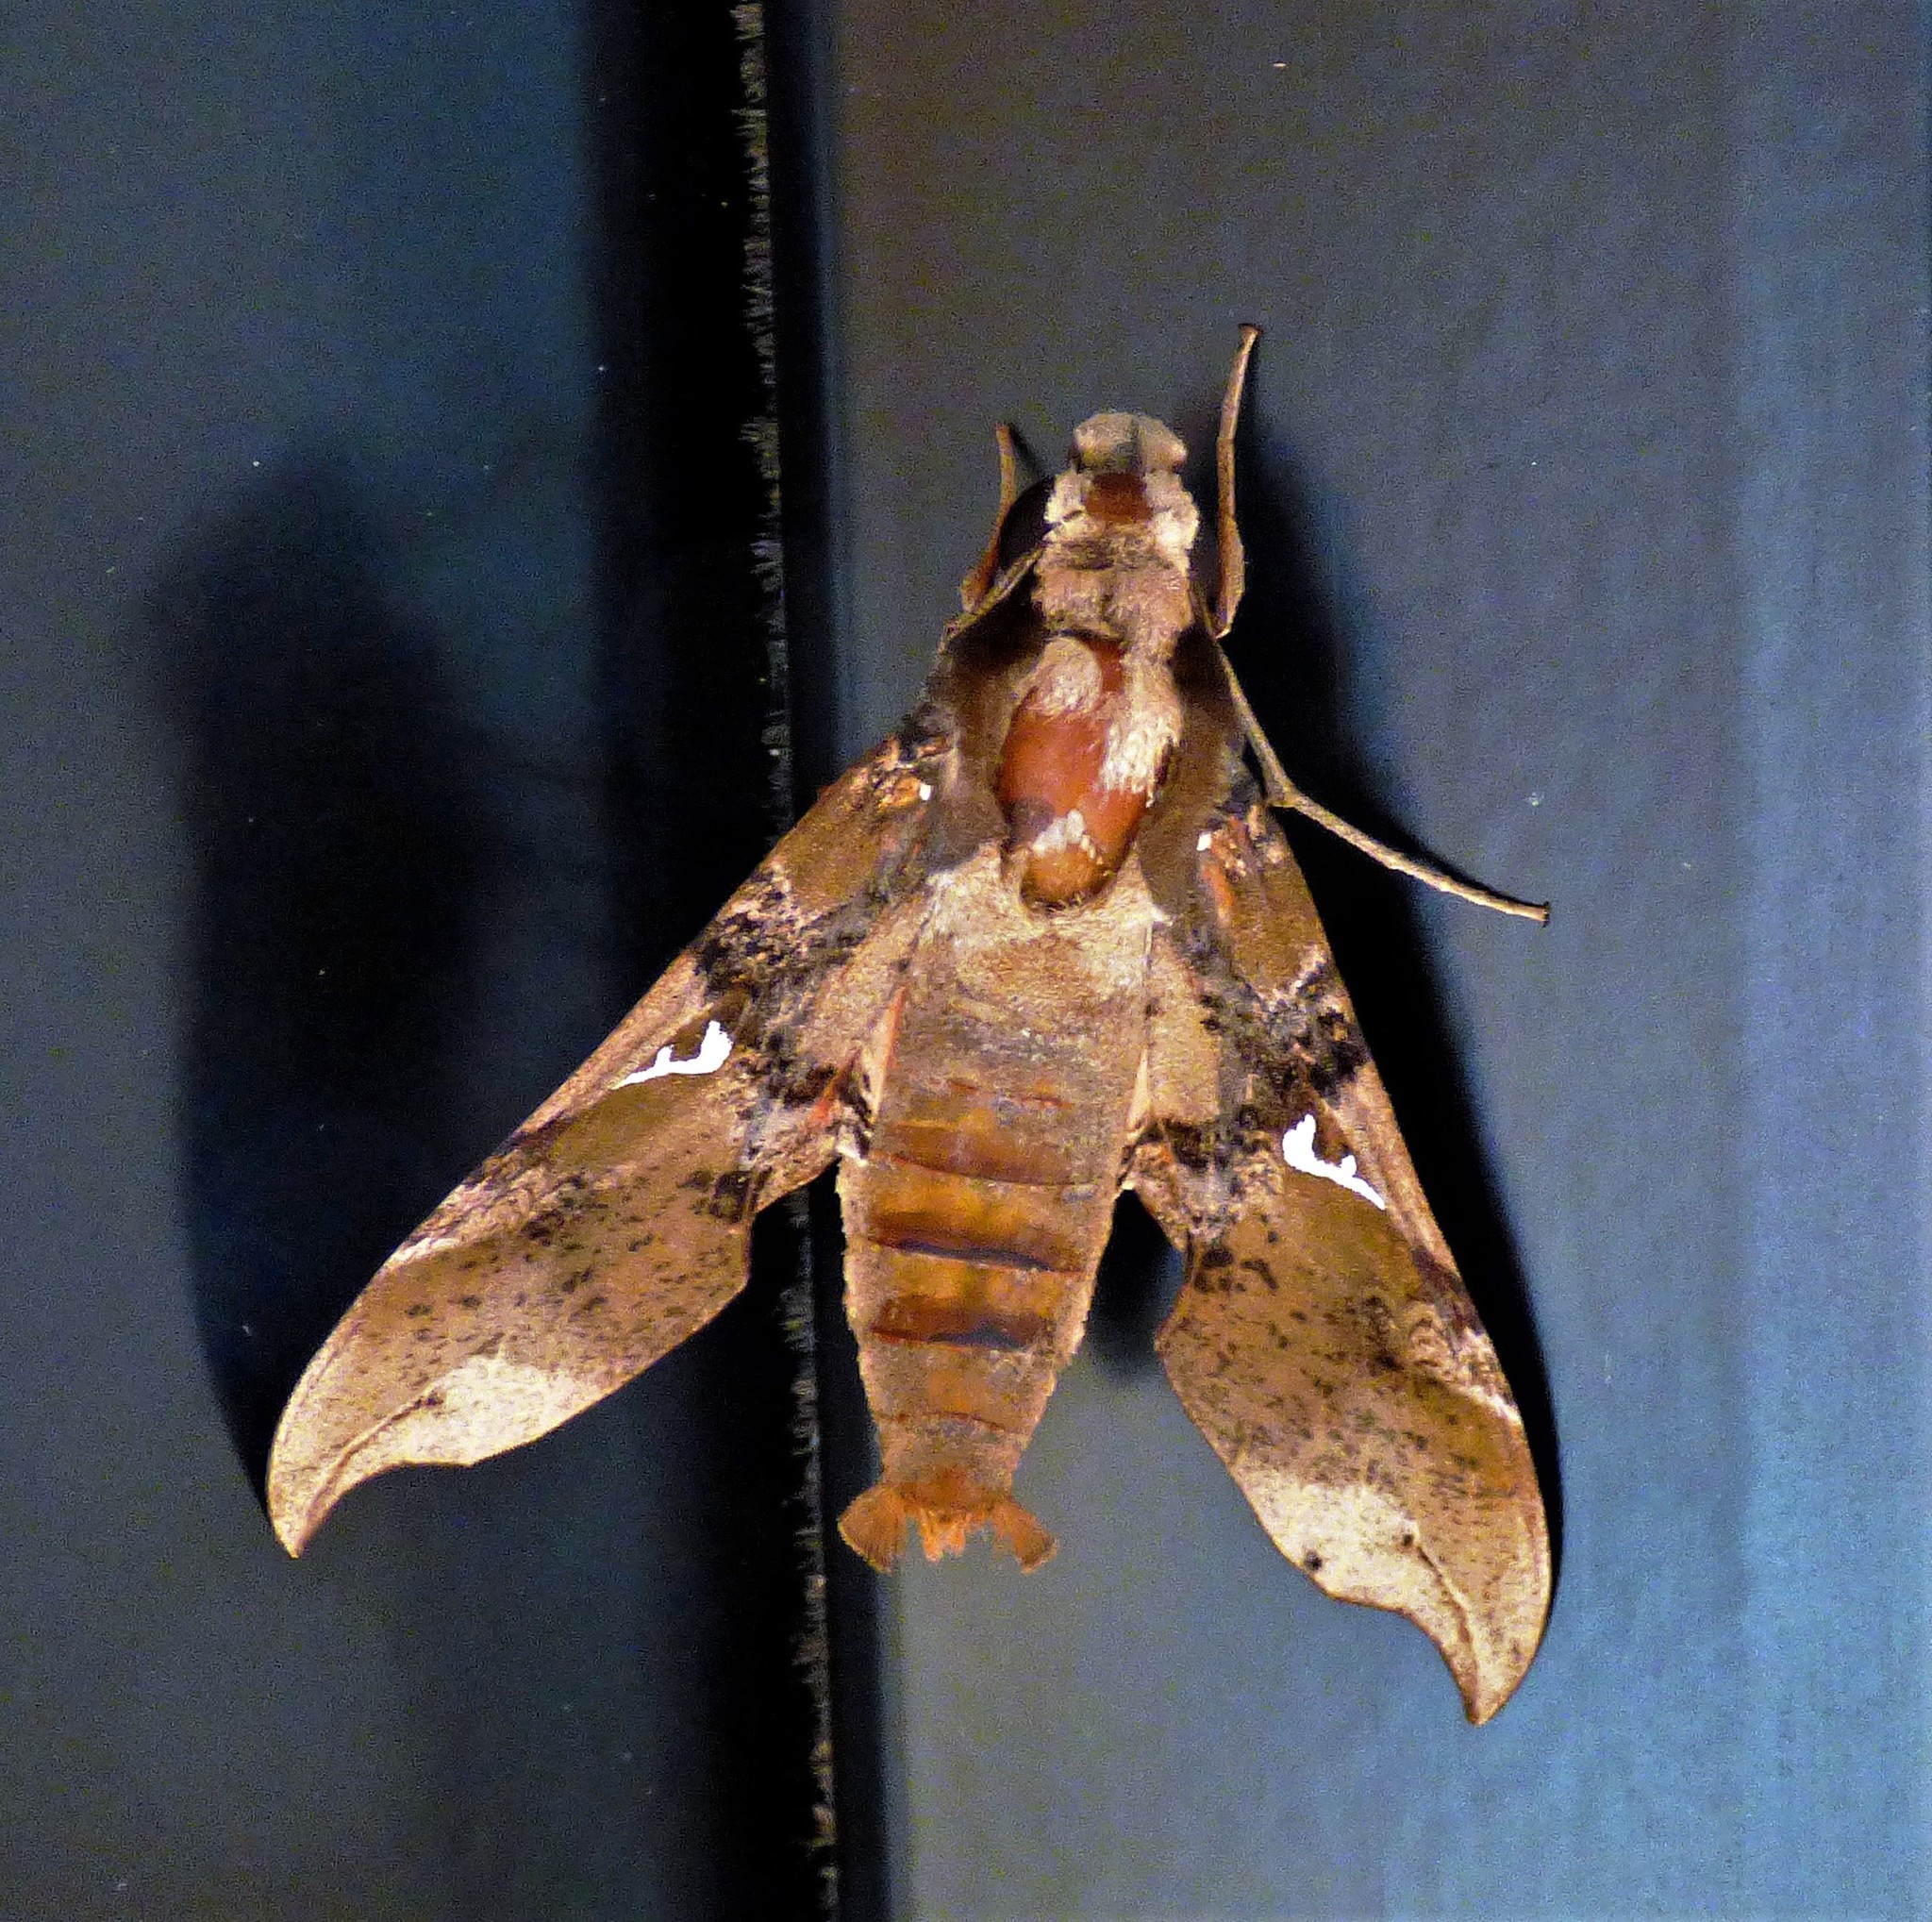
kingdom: Animalia
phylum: Arthropoda
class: Insecta
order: Lepidoptera
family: Sphingidae
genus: Callionima
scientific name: Callionima parce
